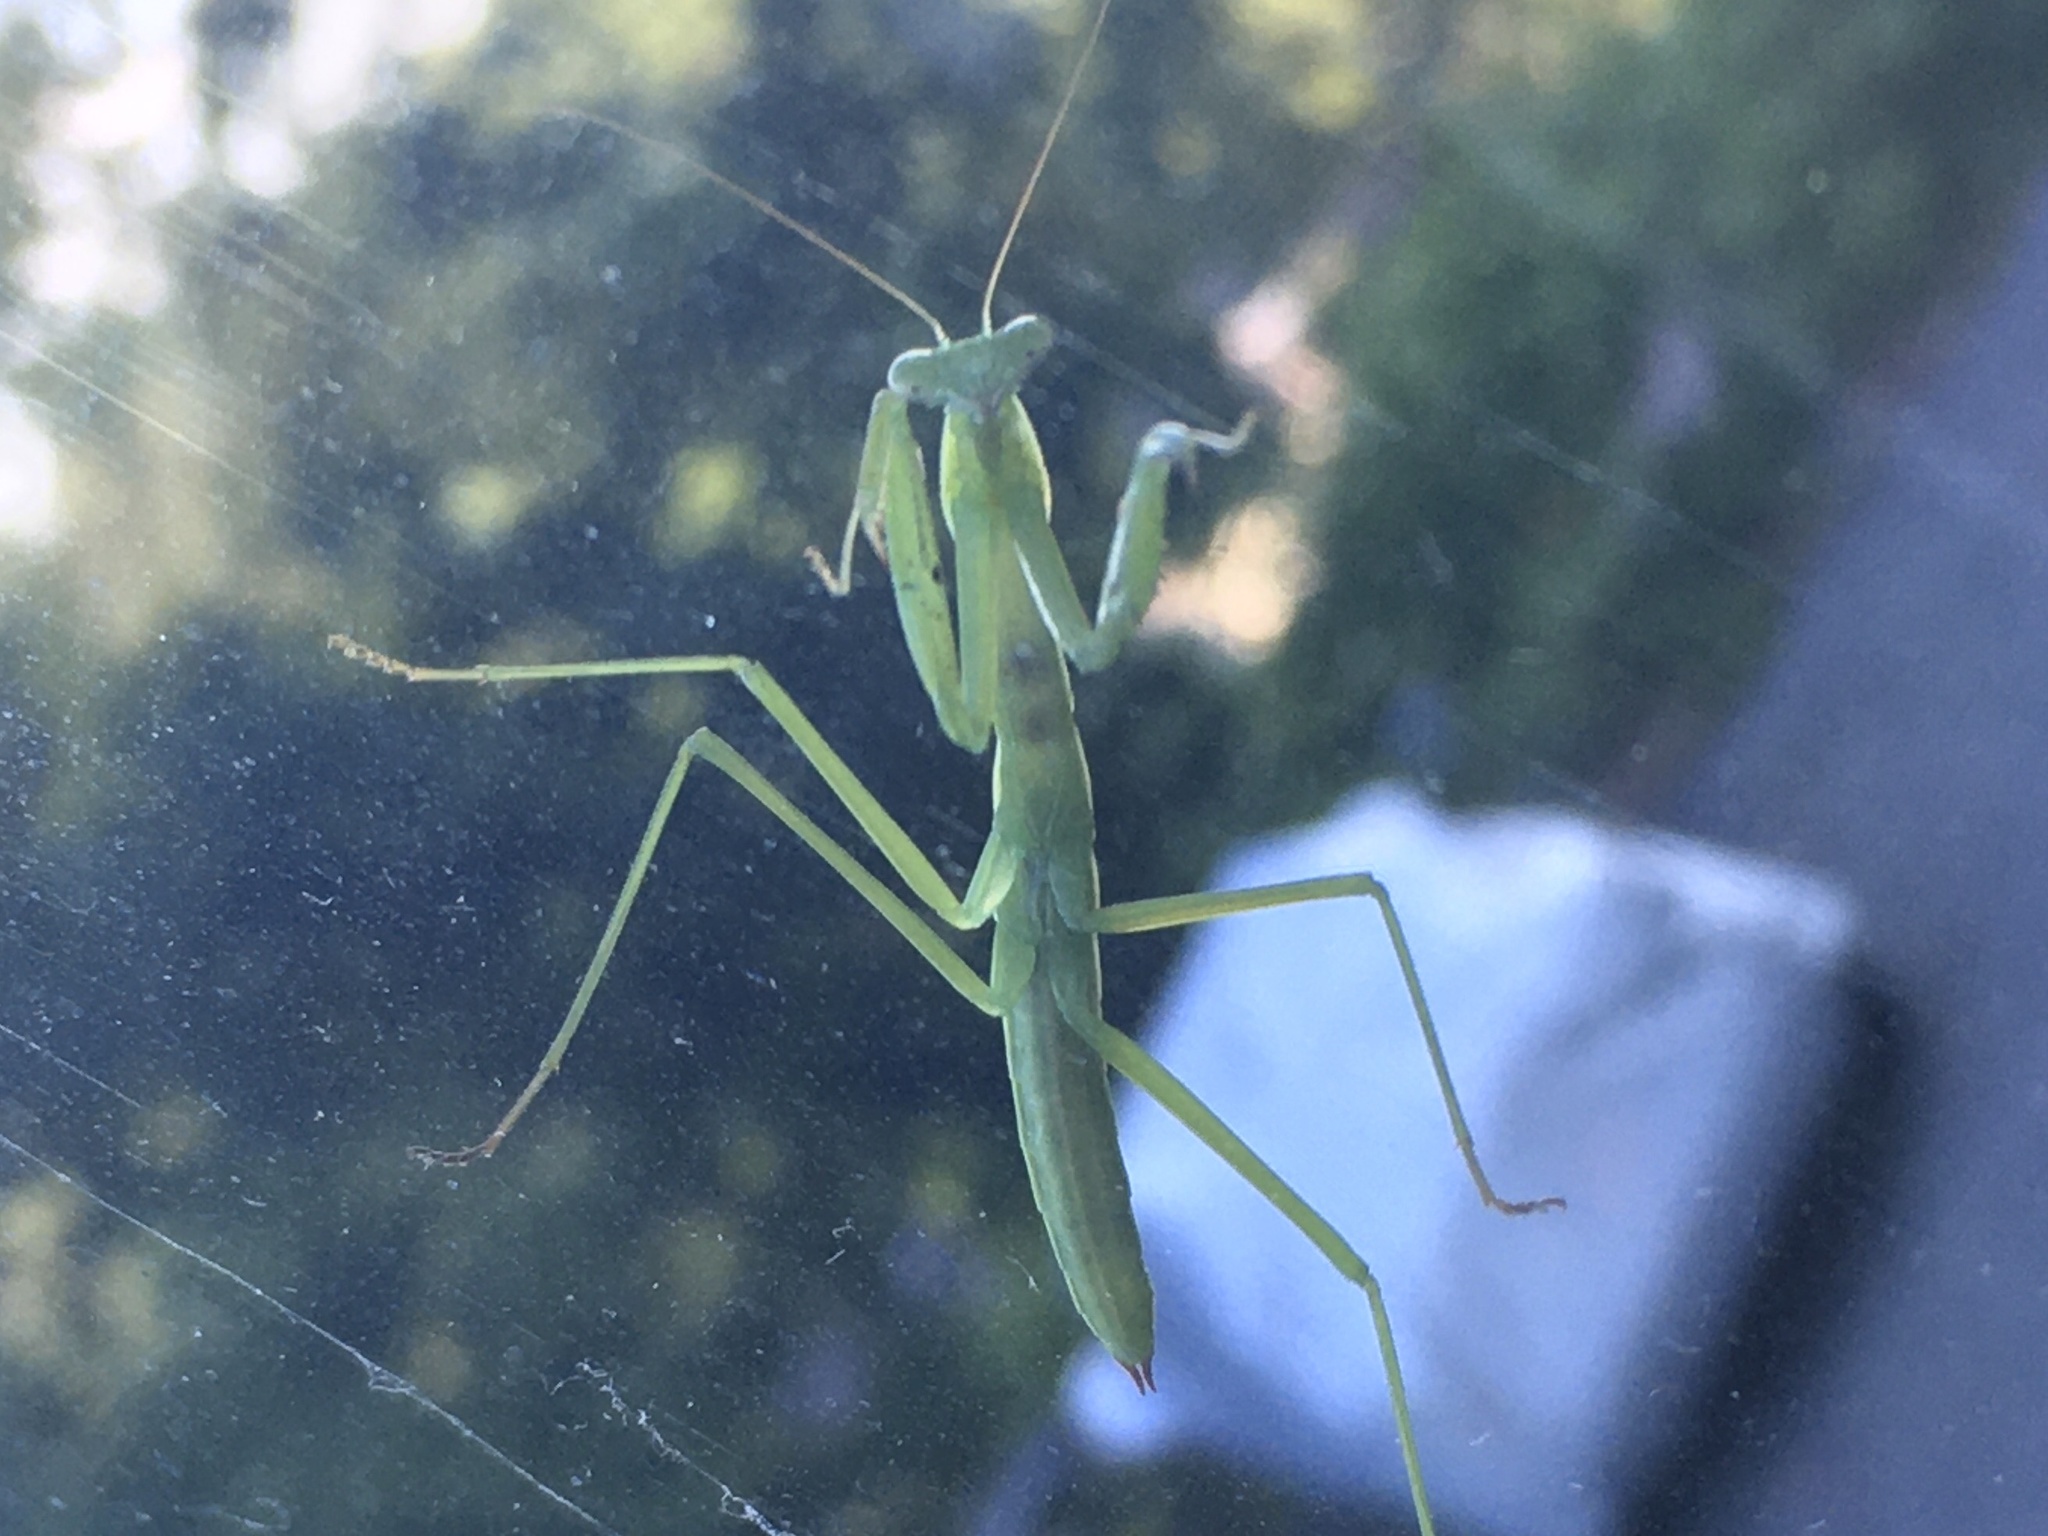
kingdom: Animalia
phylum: Arthropoda
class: Insecta
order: Mantodea
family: Mantidae
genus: Tenodera
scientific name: Tenodera sinensis
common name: Chinese mantis
